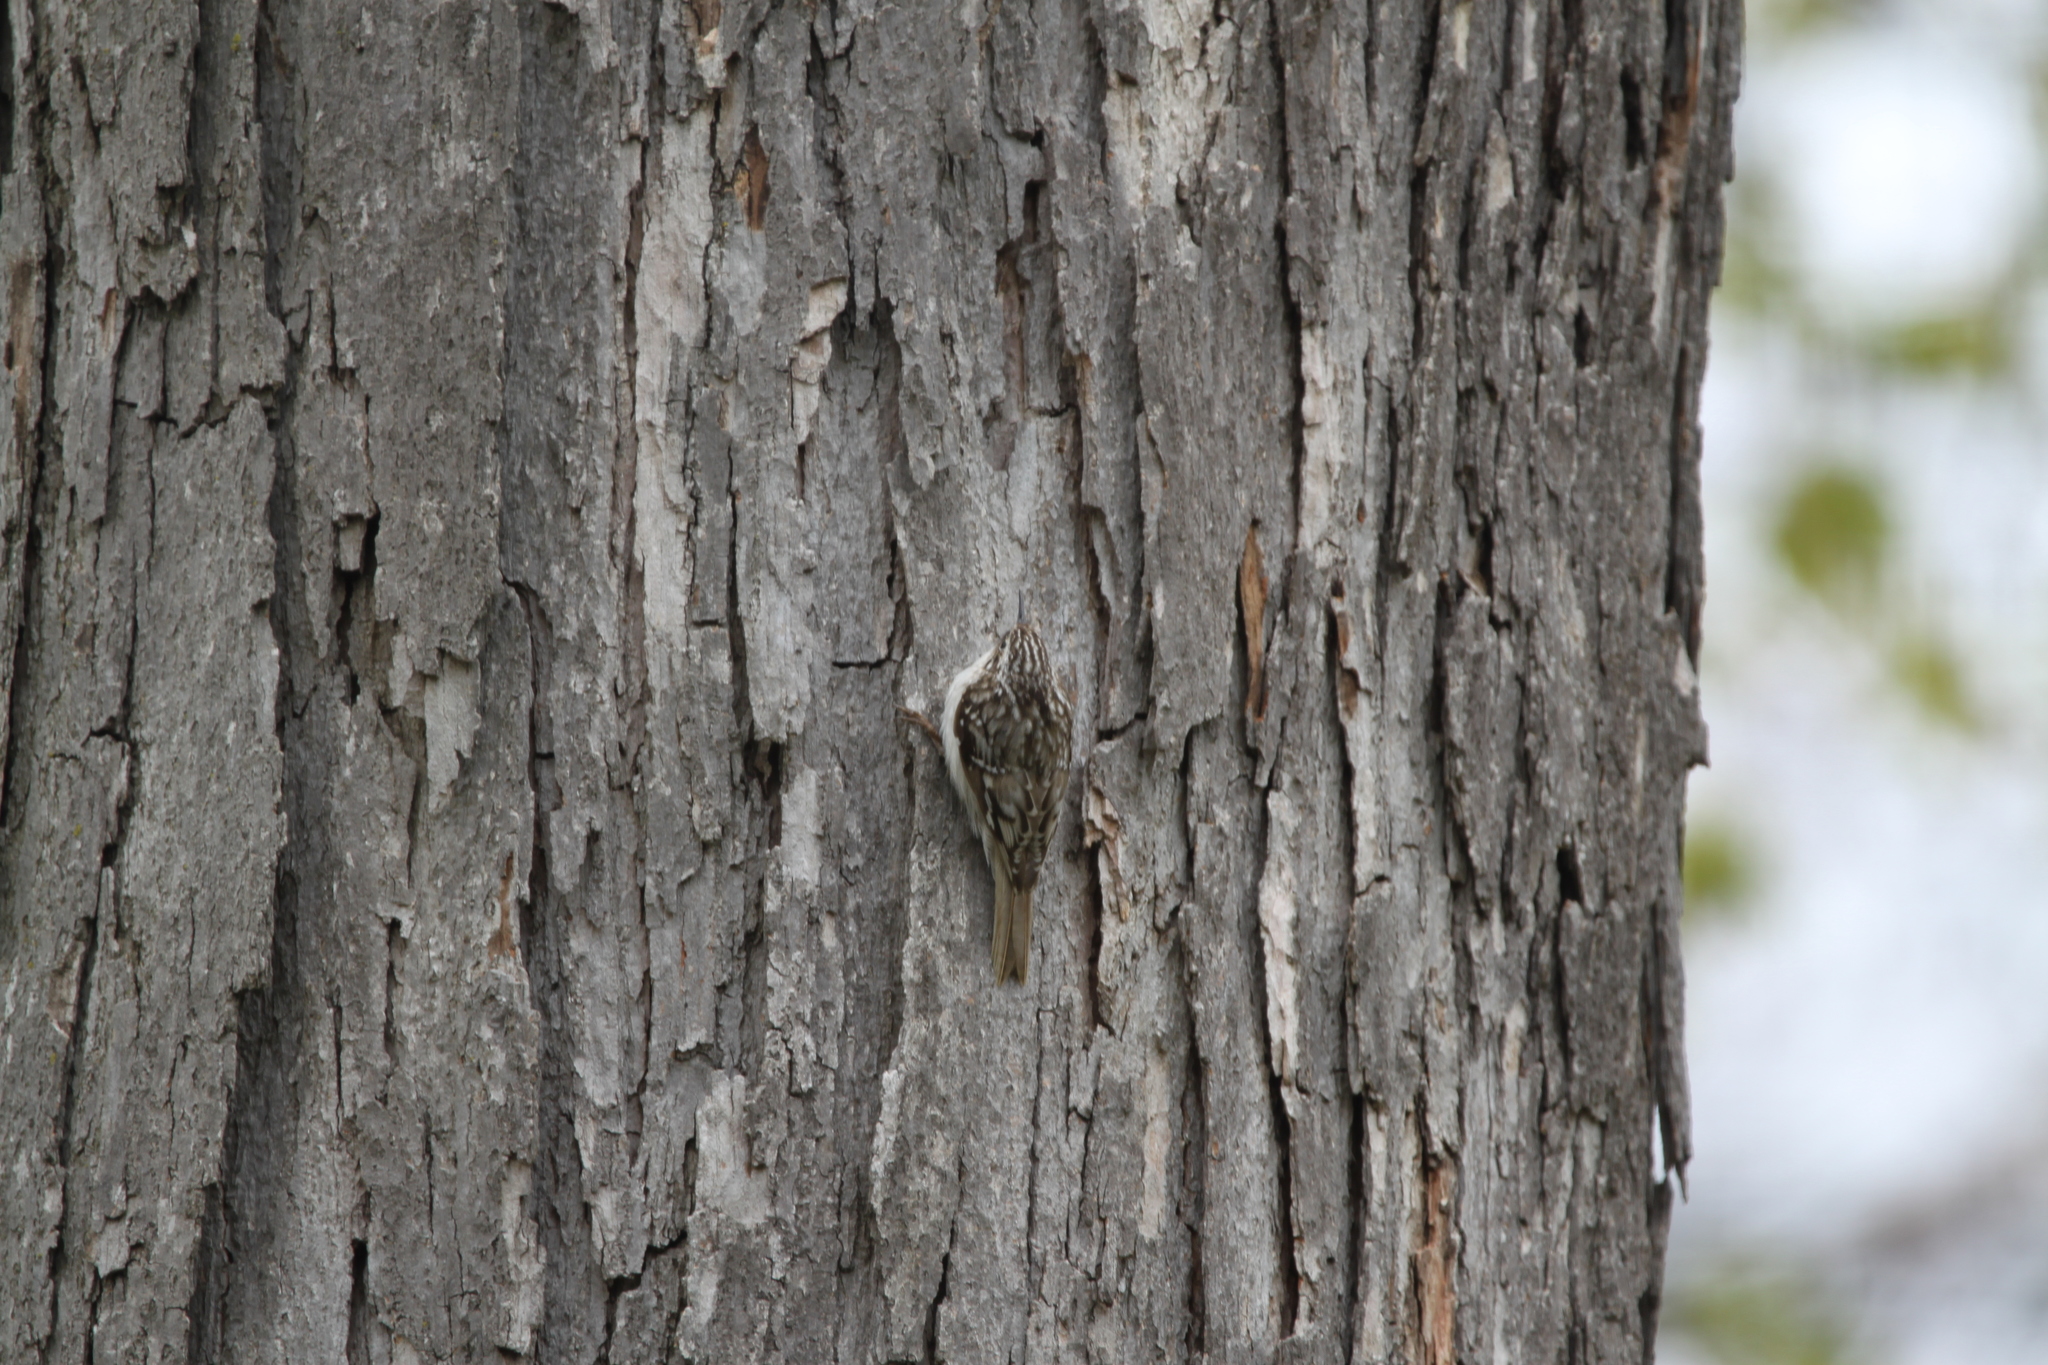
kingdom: Animalia
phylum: Chordata
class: Aves
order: Passeriformes
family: Certhiidae
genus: Certhia
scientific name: Certhia americana
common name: Brown creeper
